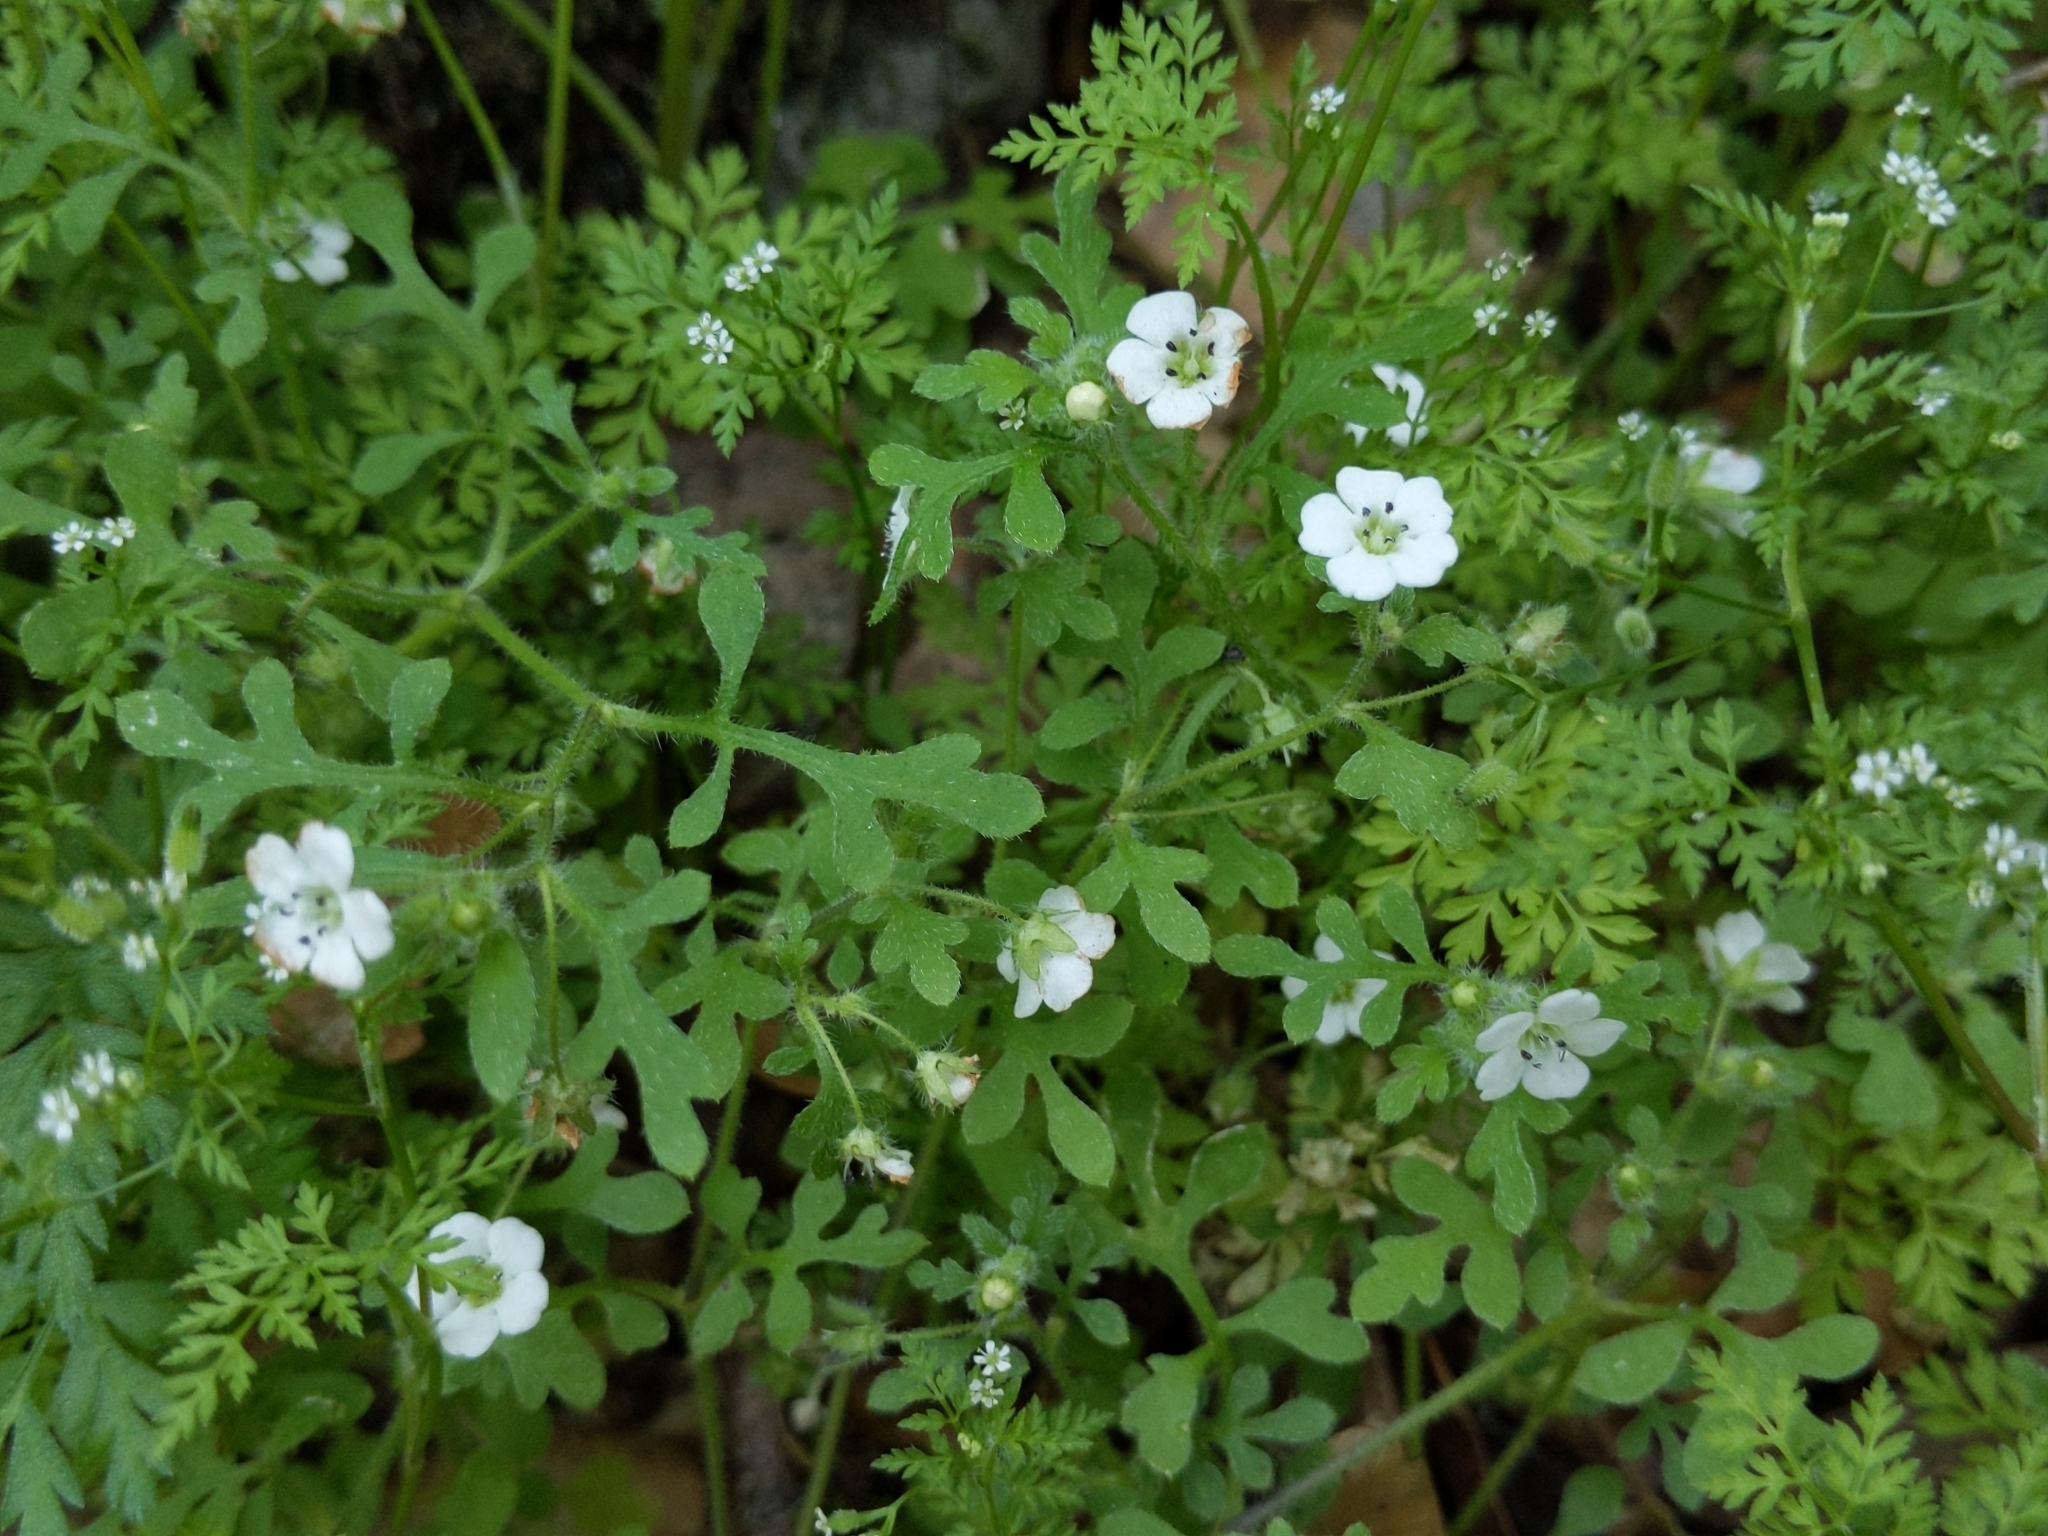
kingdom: Plantae
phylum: Tracheophyta
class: Magnoliopsida
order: Boraginales
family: Hydrophyllaceae
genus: Nemophila
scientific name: Nemophila heterophylla
